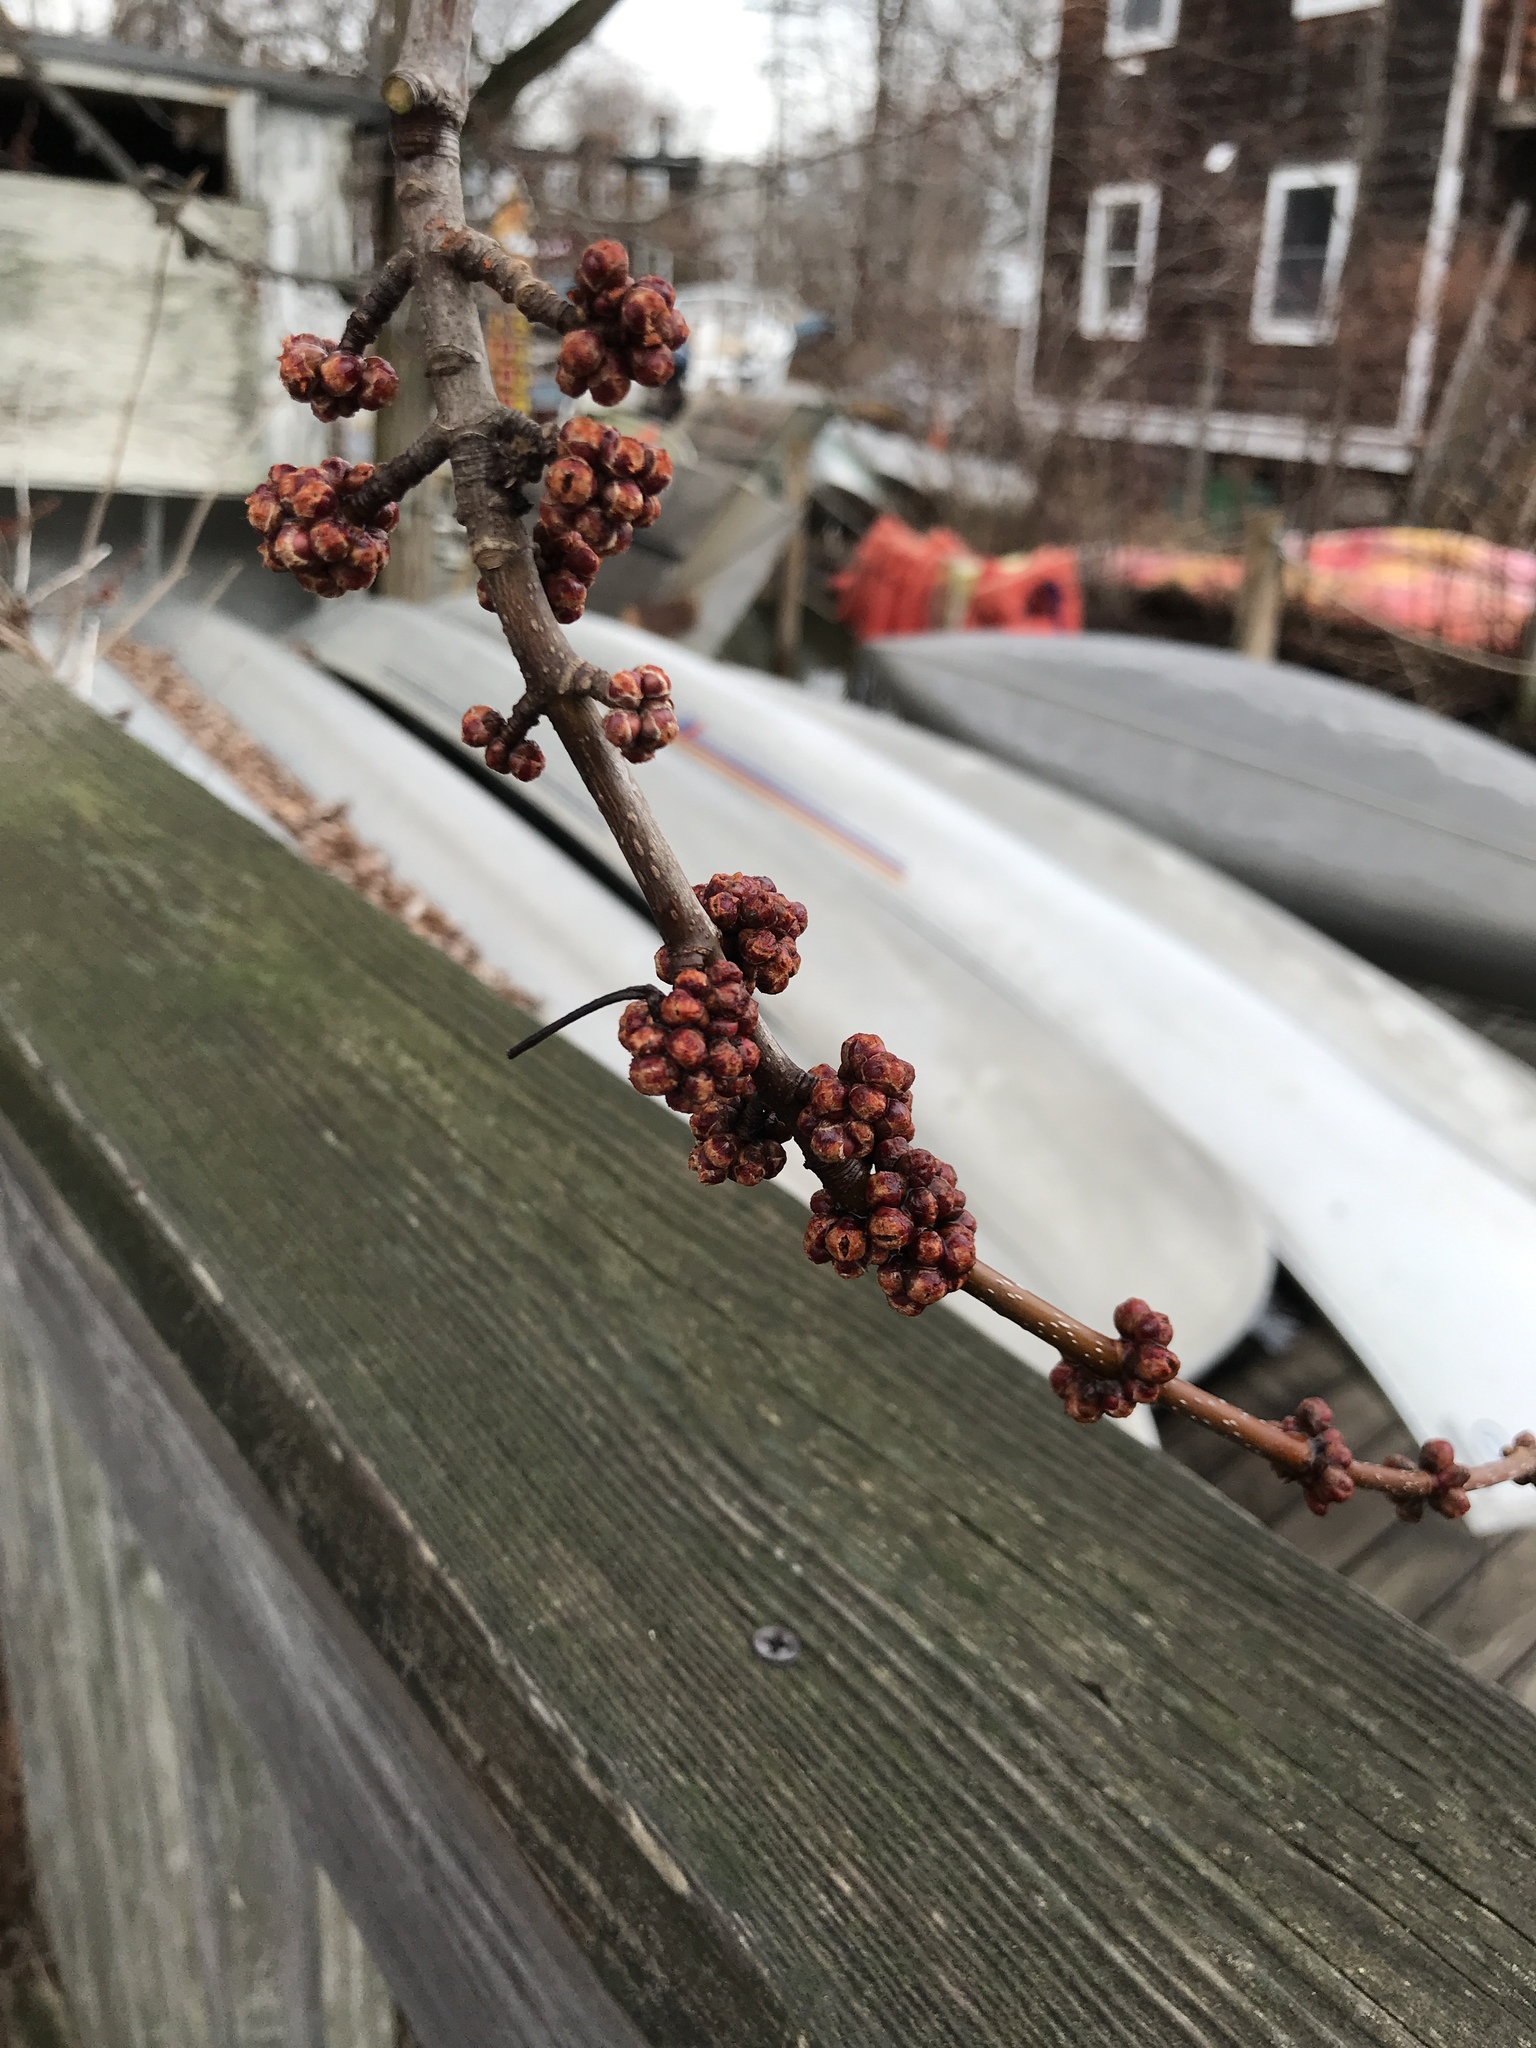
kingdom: Plantae
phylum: Tracheophyta
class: Magnoliopsida
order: Sapindales
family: Sapindaceae
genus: Acer
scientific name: Acer rubrum
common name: Red maple
